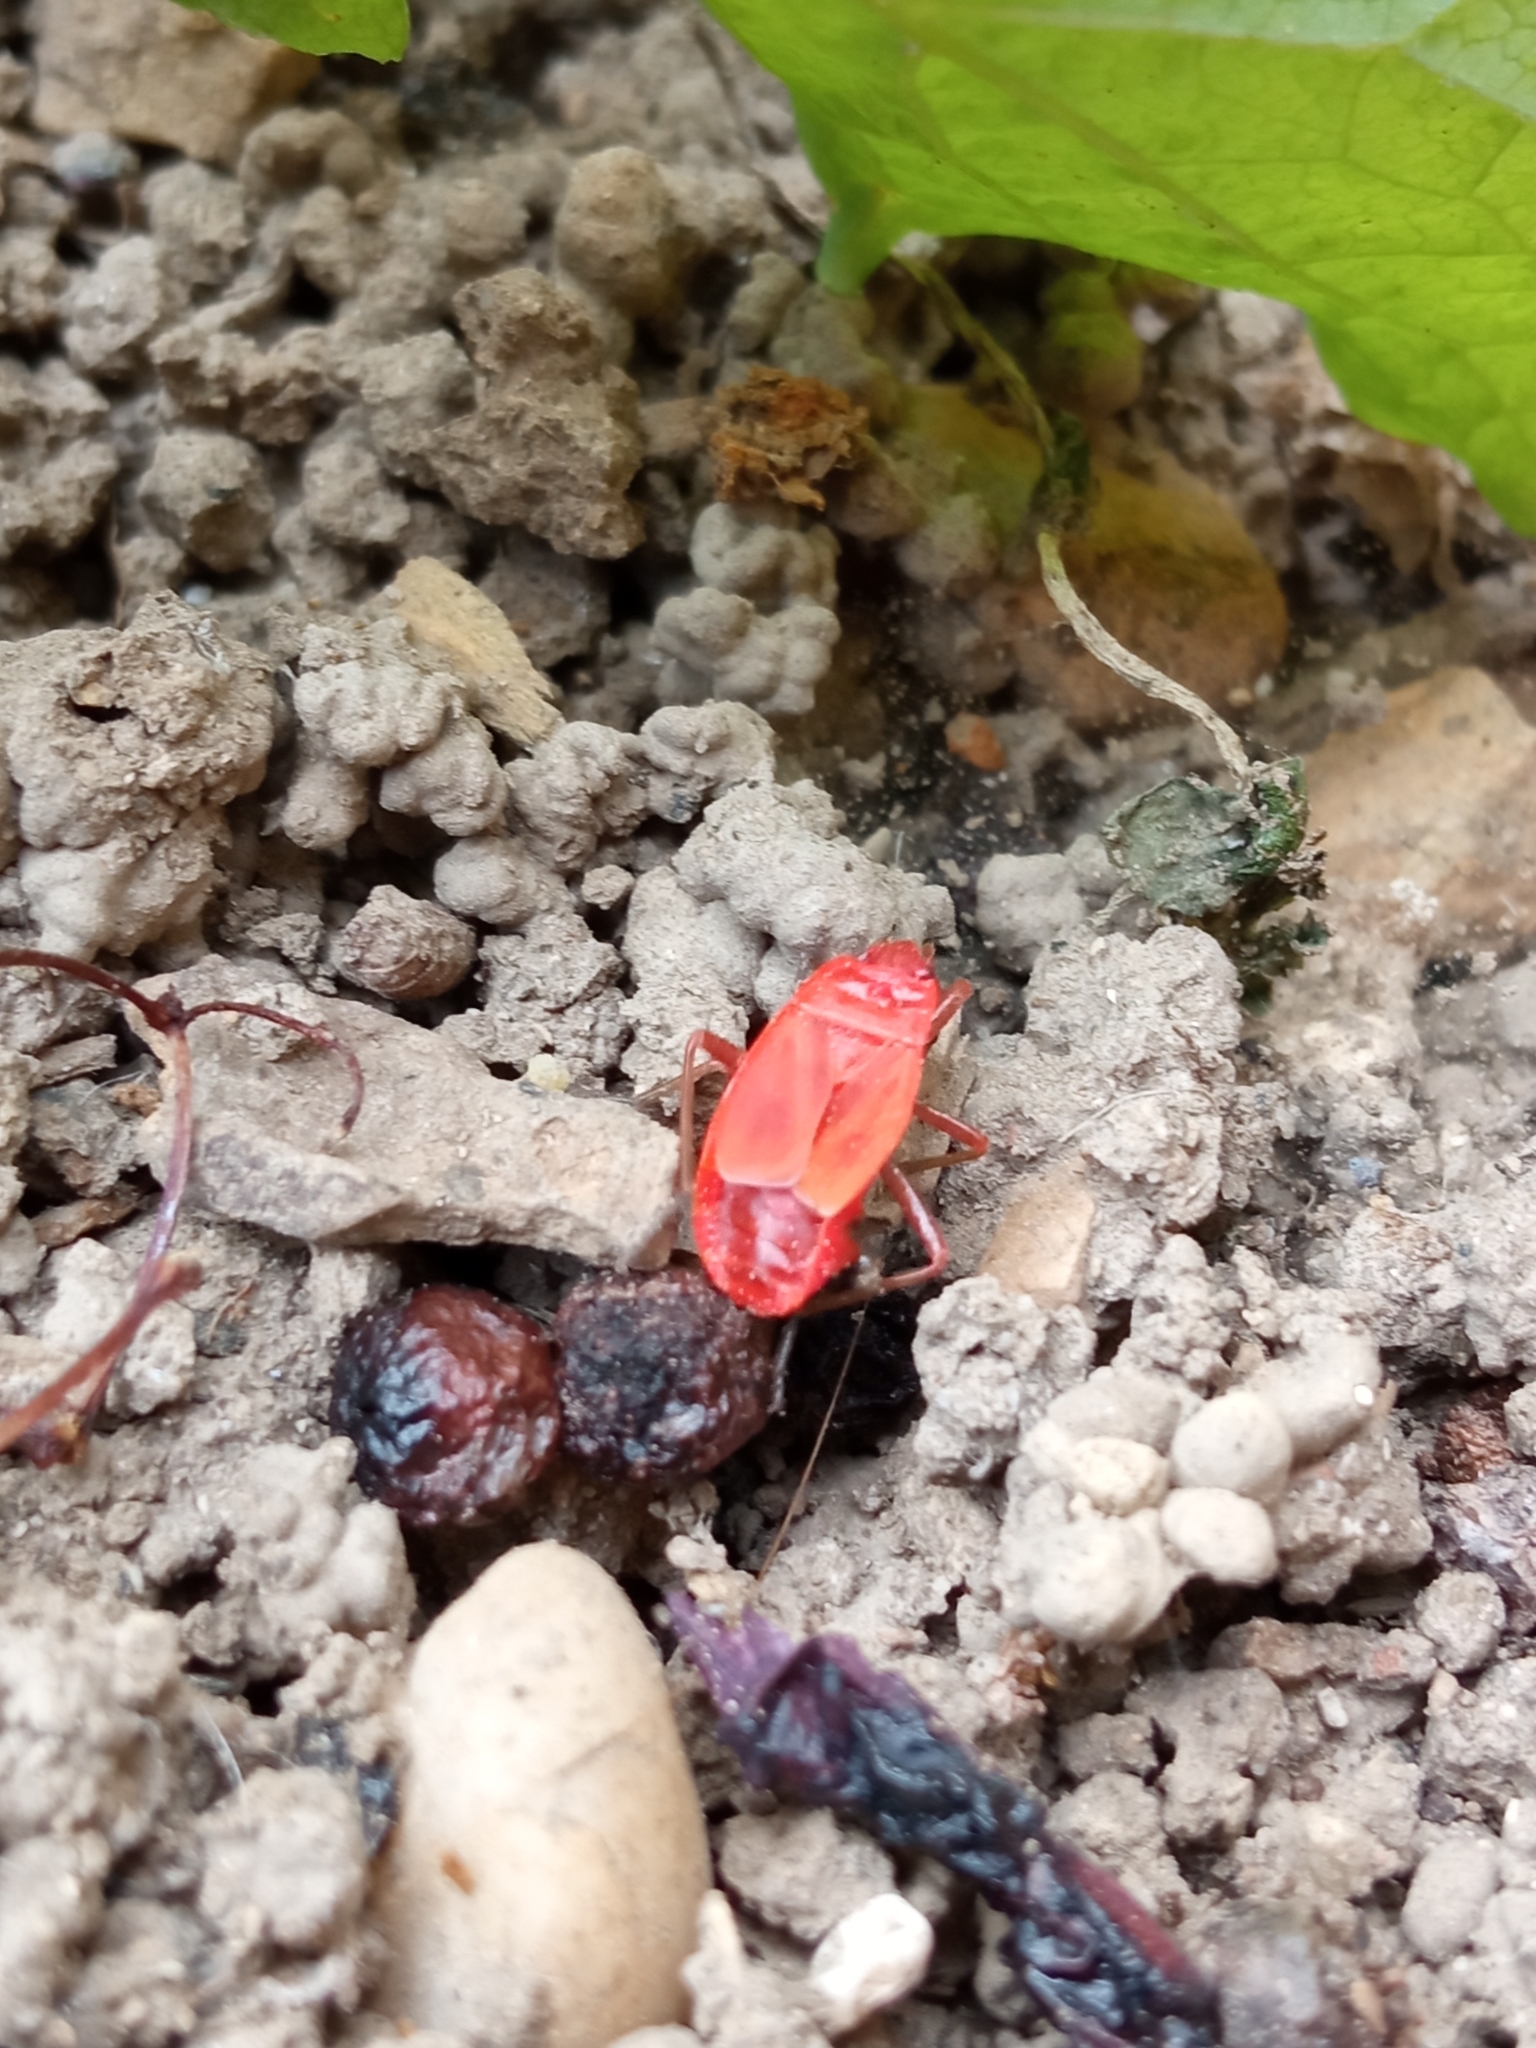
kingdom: Animalia
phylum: Arthropoda
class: Insecta
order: Hemiptera
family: Pyrrhocoridae
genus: Pyrrhocoris
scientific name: Pyrrhocoris apterus
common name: Firebug
